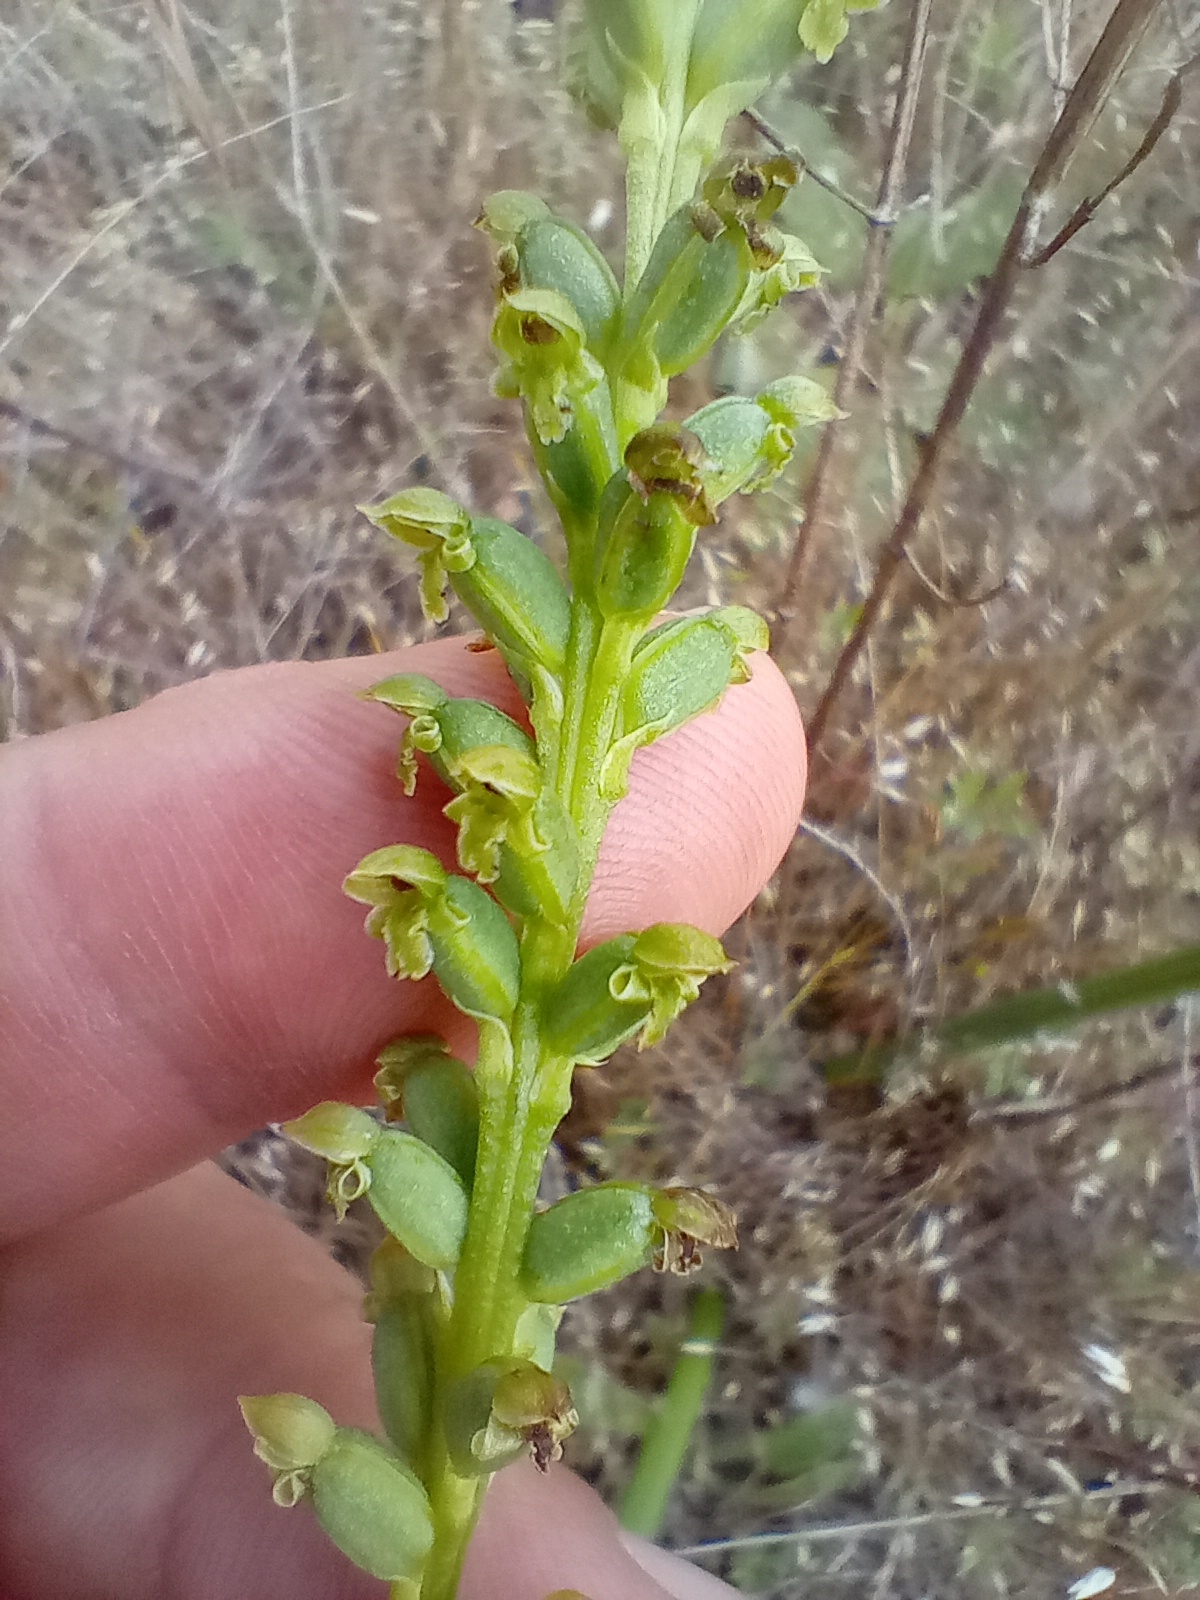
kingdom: Plantae
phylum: Tracheophyta
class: Liliopsida
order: Asparagales
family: Orchidaceae
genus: Microtis
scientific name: Microtis unifolia
